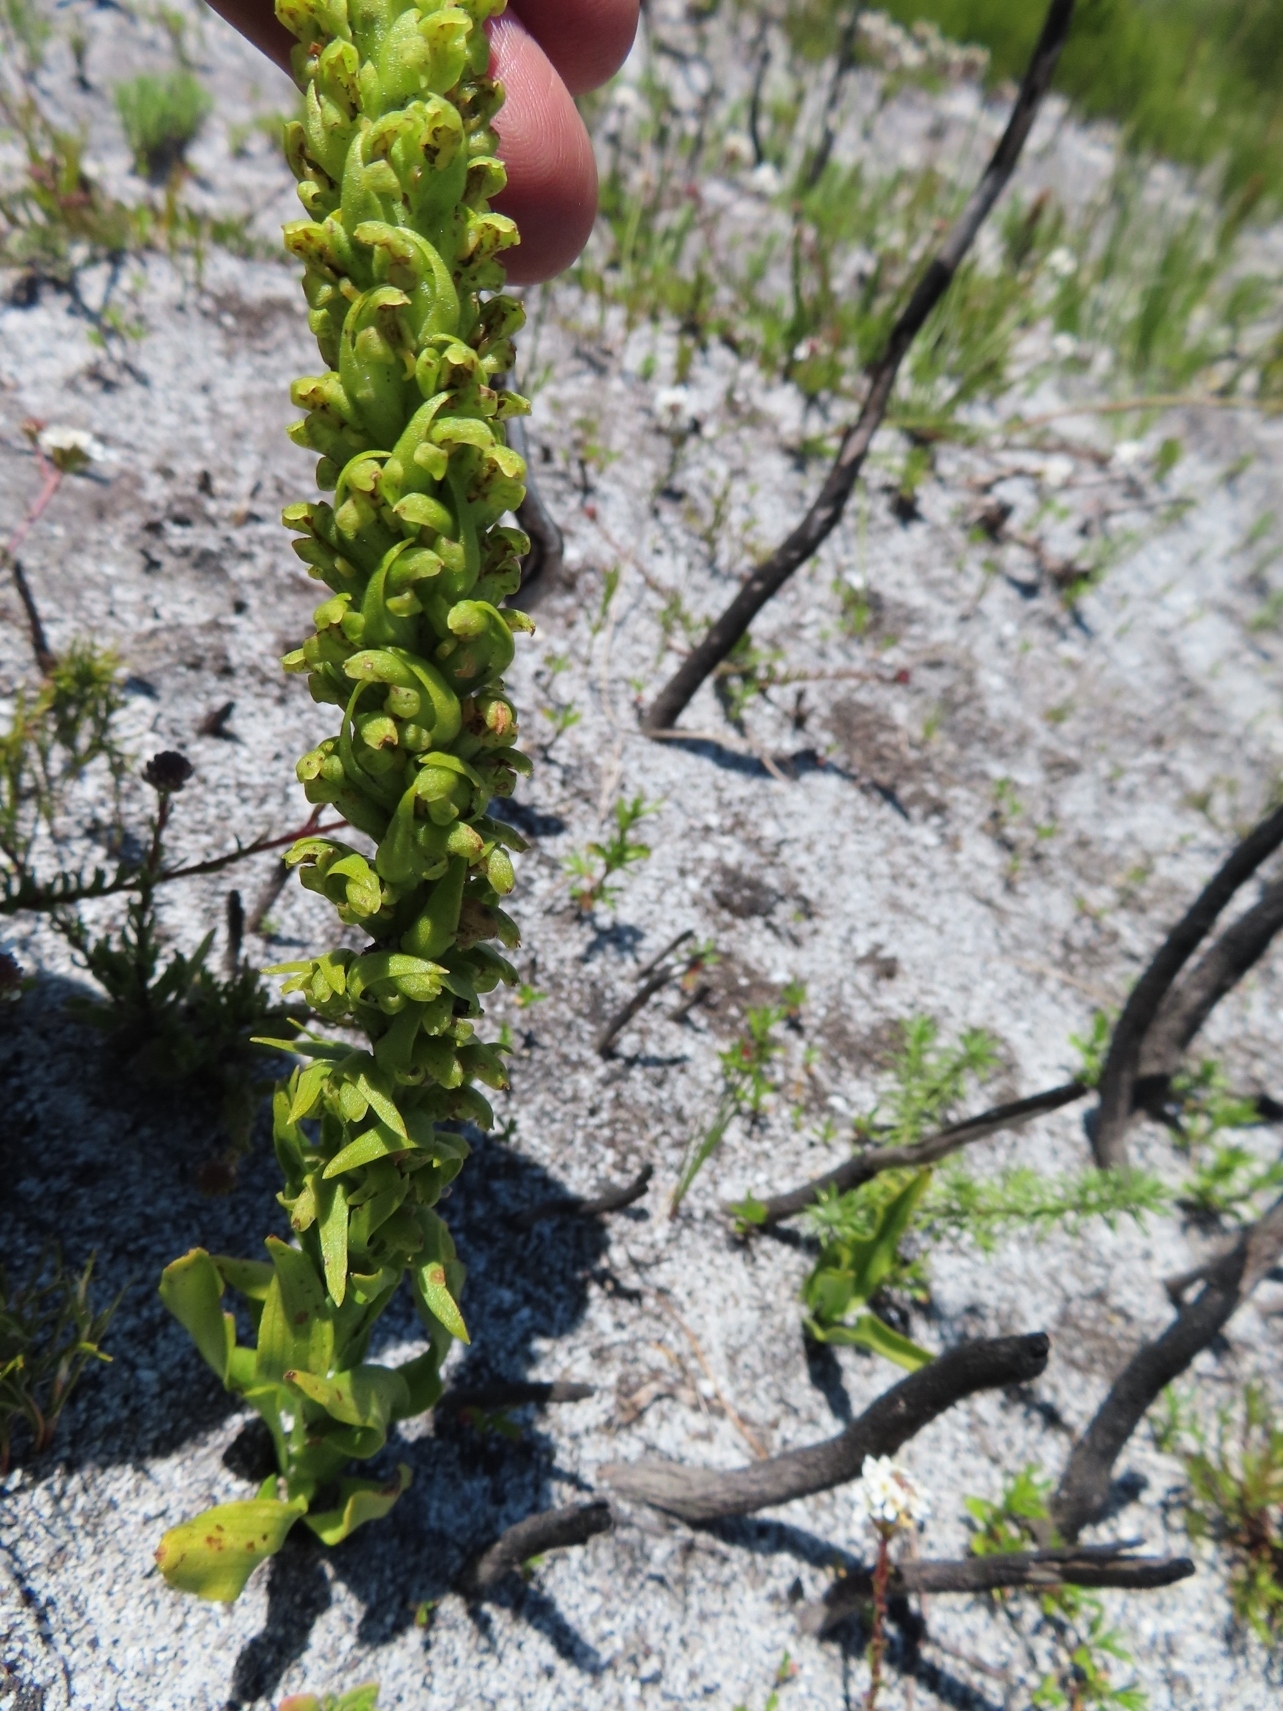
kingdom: Plantae
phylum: Tracheophyta
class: Liliopsida
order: Asparagales
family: Orchidaceae
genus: Disa
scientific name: Disa cylindrica
